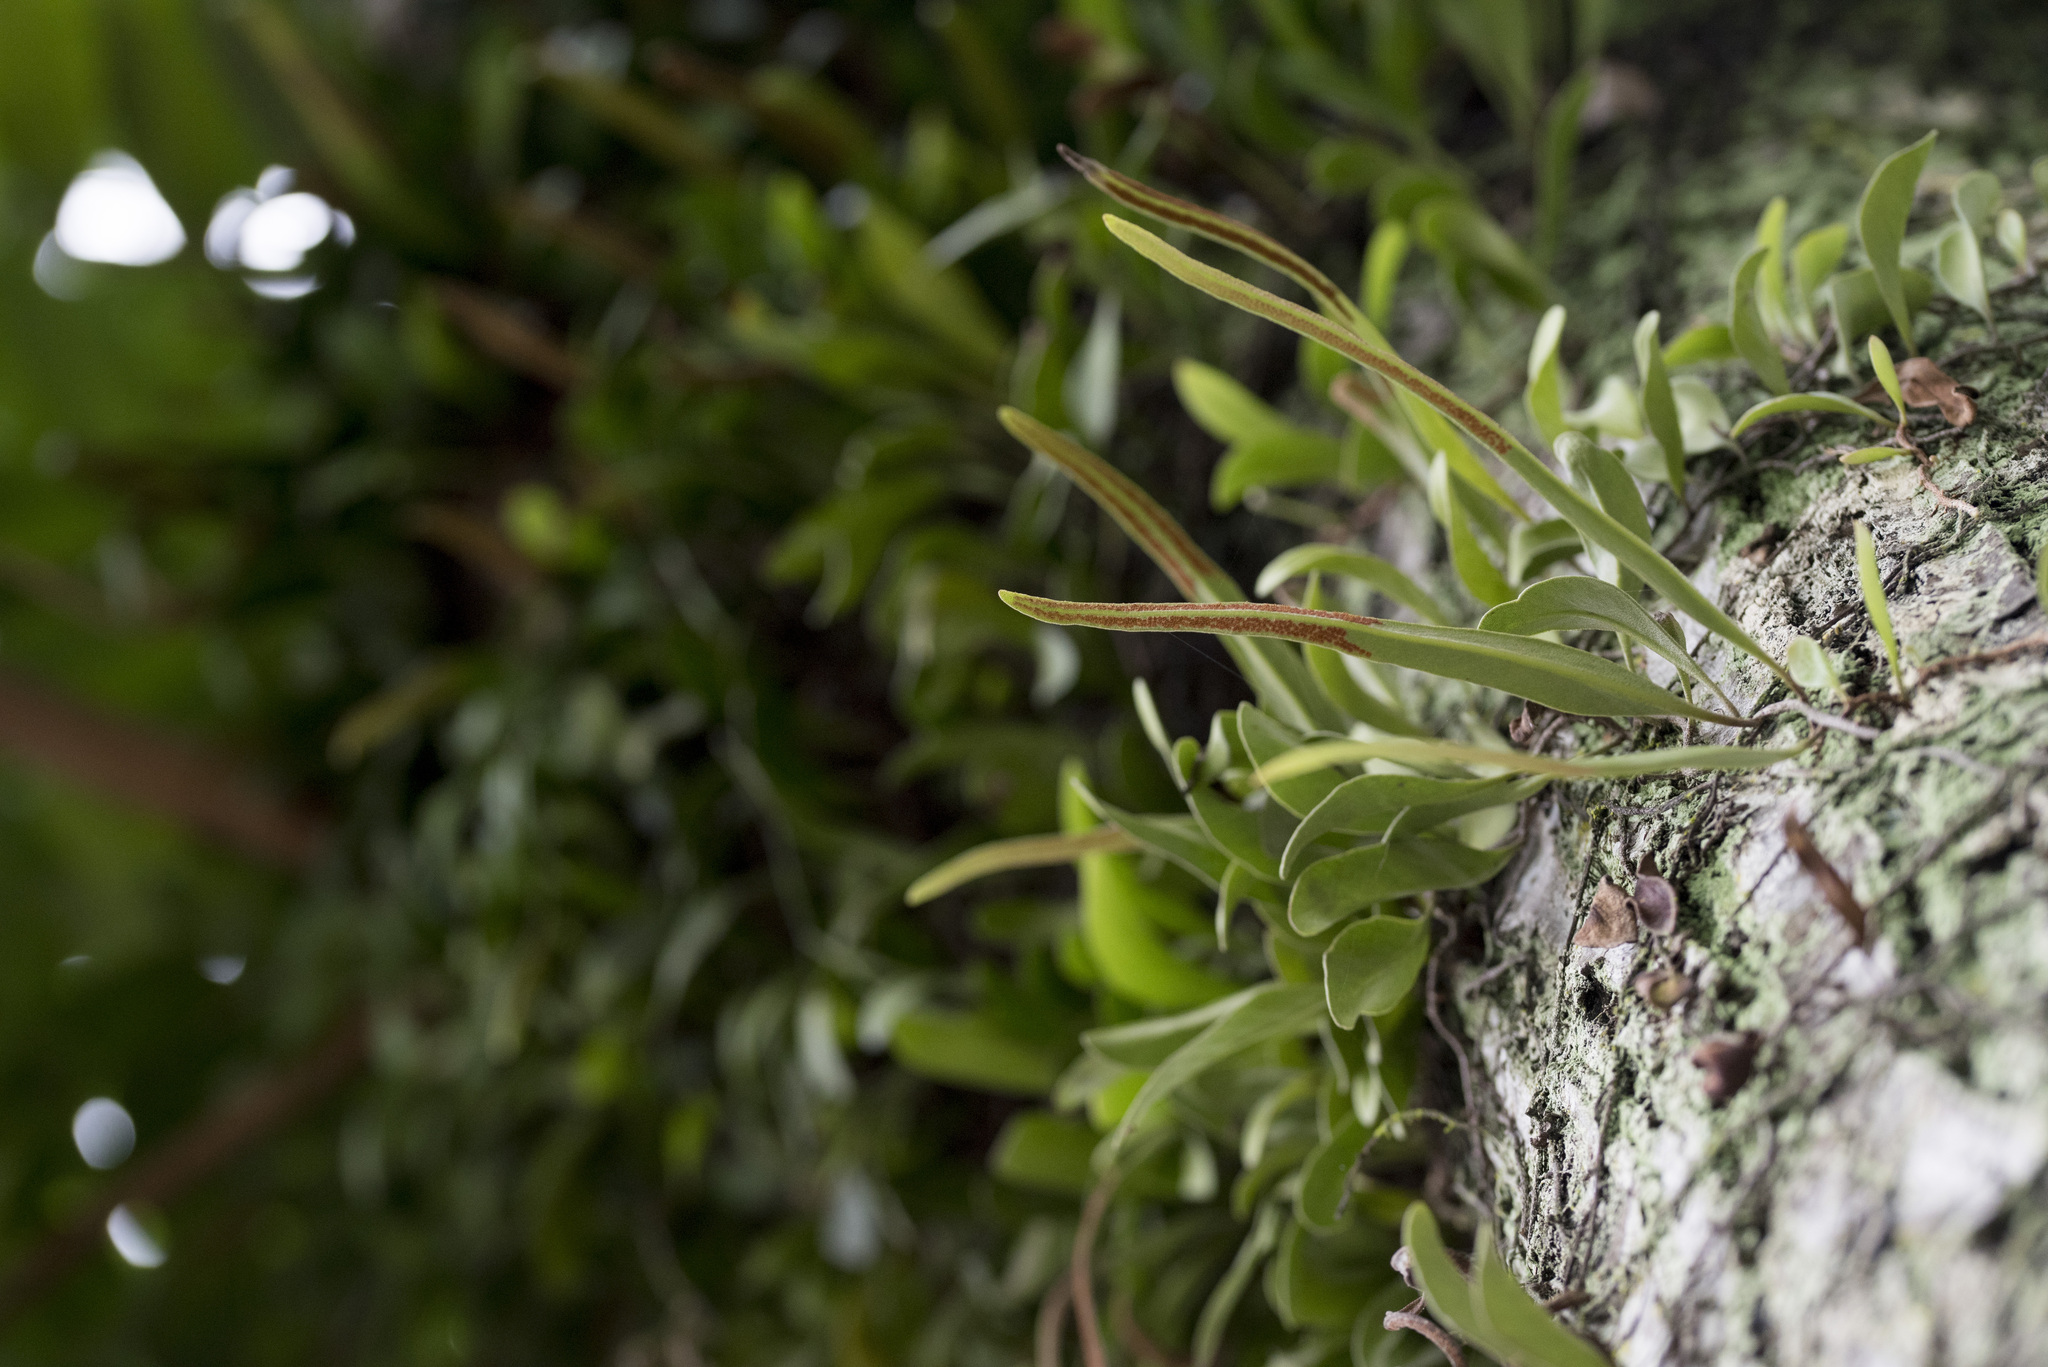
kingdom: Plantae
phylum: Tracheophyta
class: Polypodiopsida
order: Polypodiales
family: Polypodiaceae
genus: Pyrrosia
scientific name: Pyrrosia lanceolata
